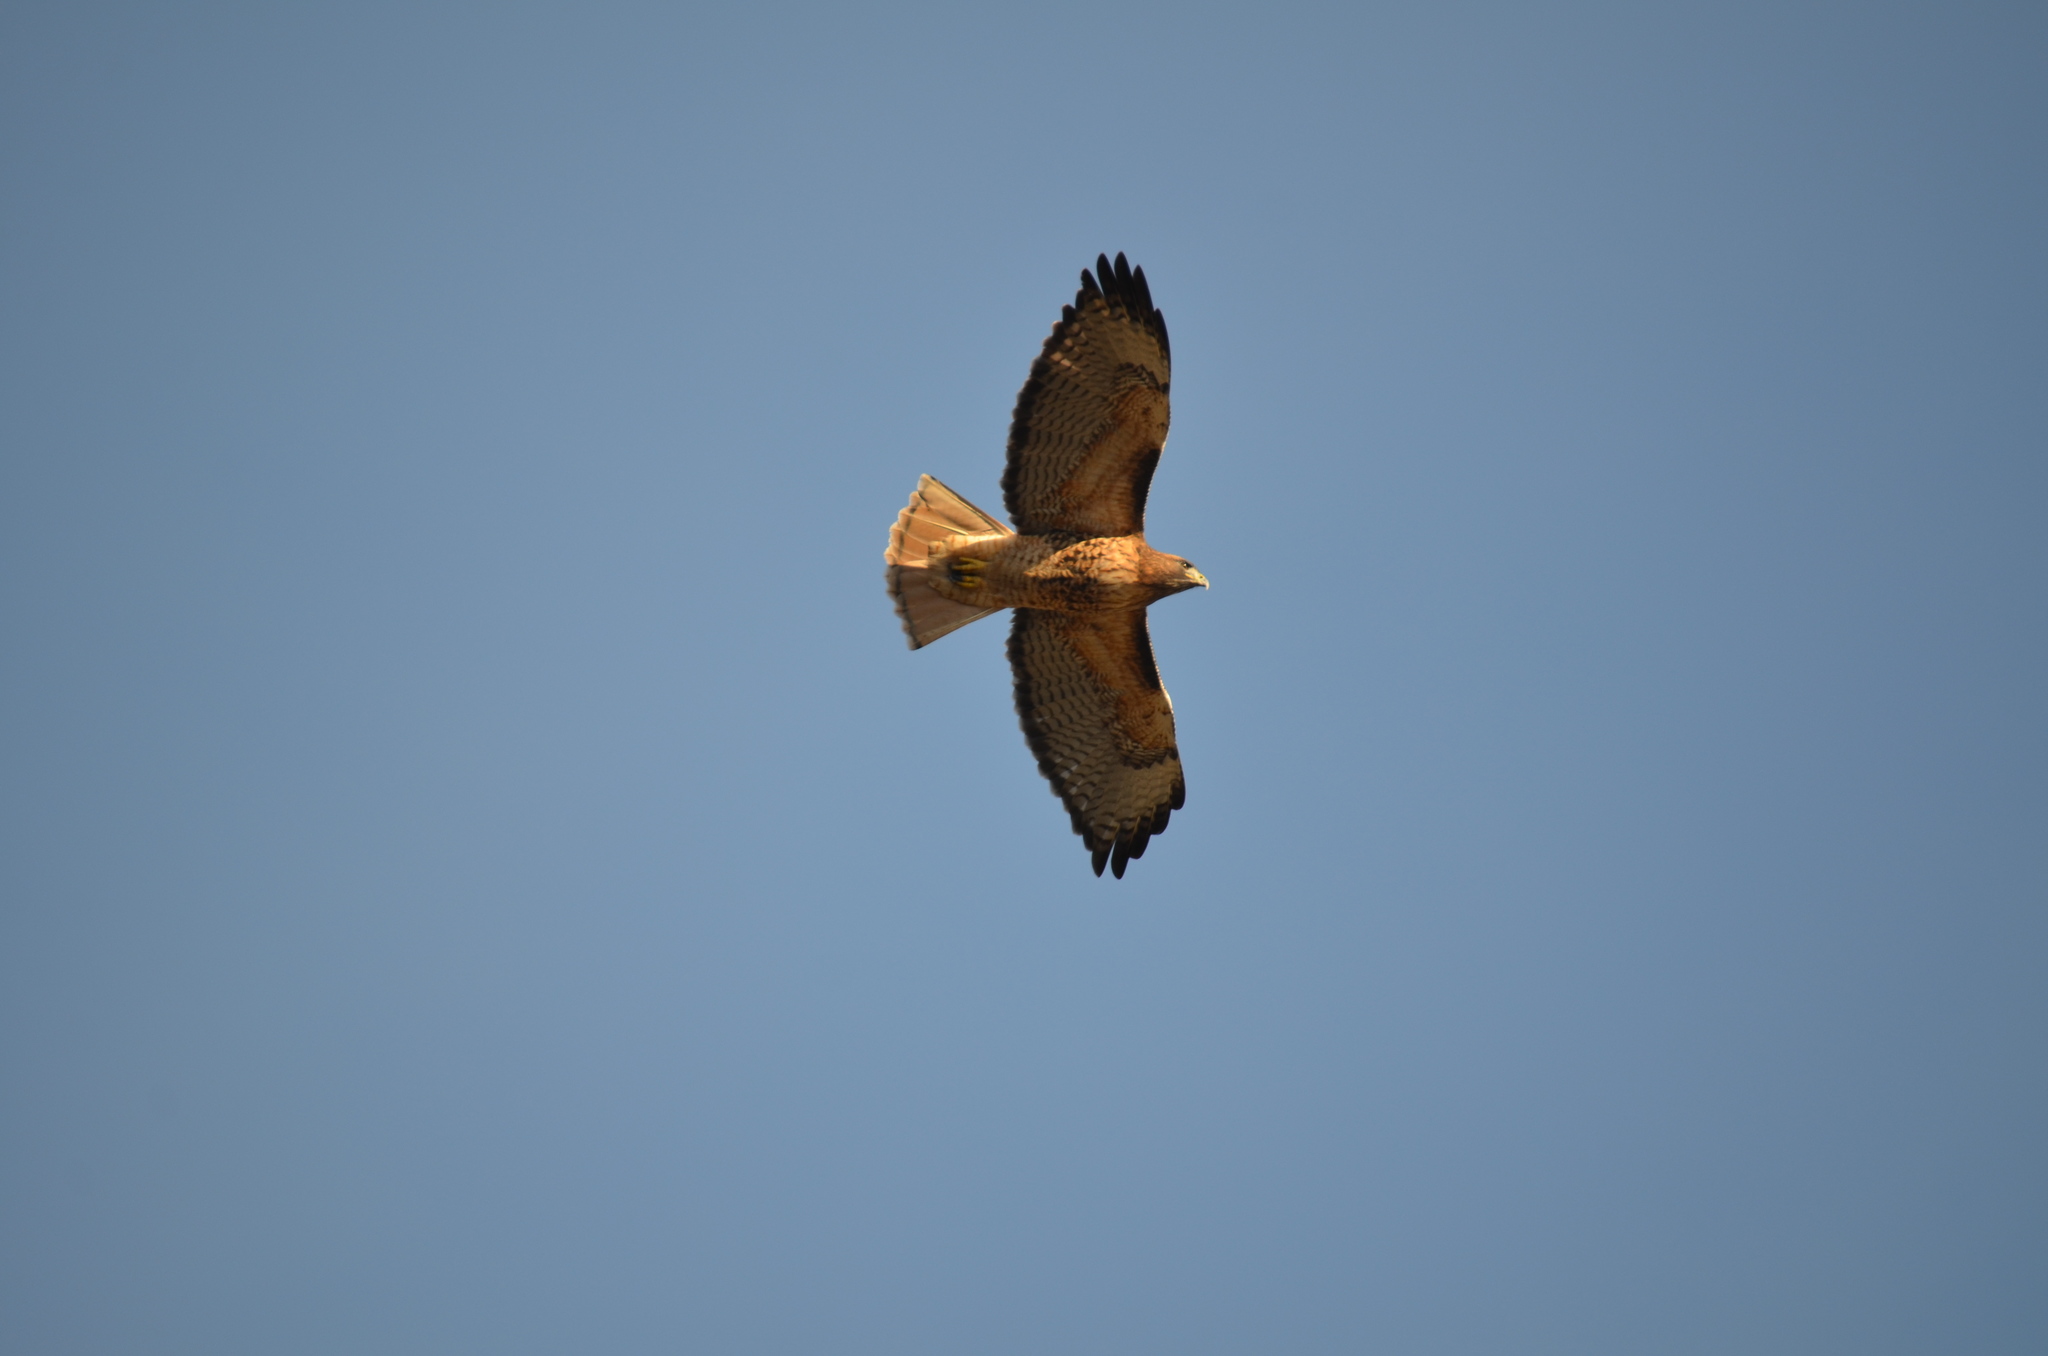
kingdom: Animalia
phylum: Chordata
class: Aves
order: Accipitriformes
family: Accipitridae
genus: Buteo
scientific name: Buteo jamaicensis
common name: Red-tailed hawk
